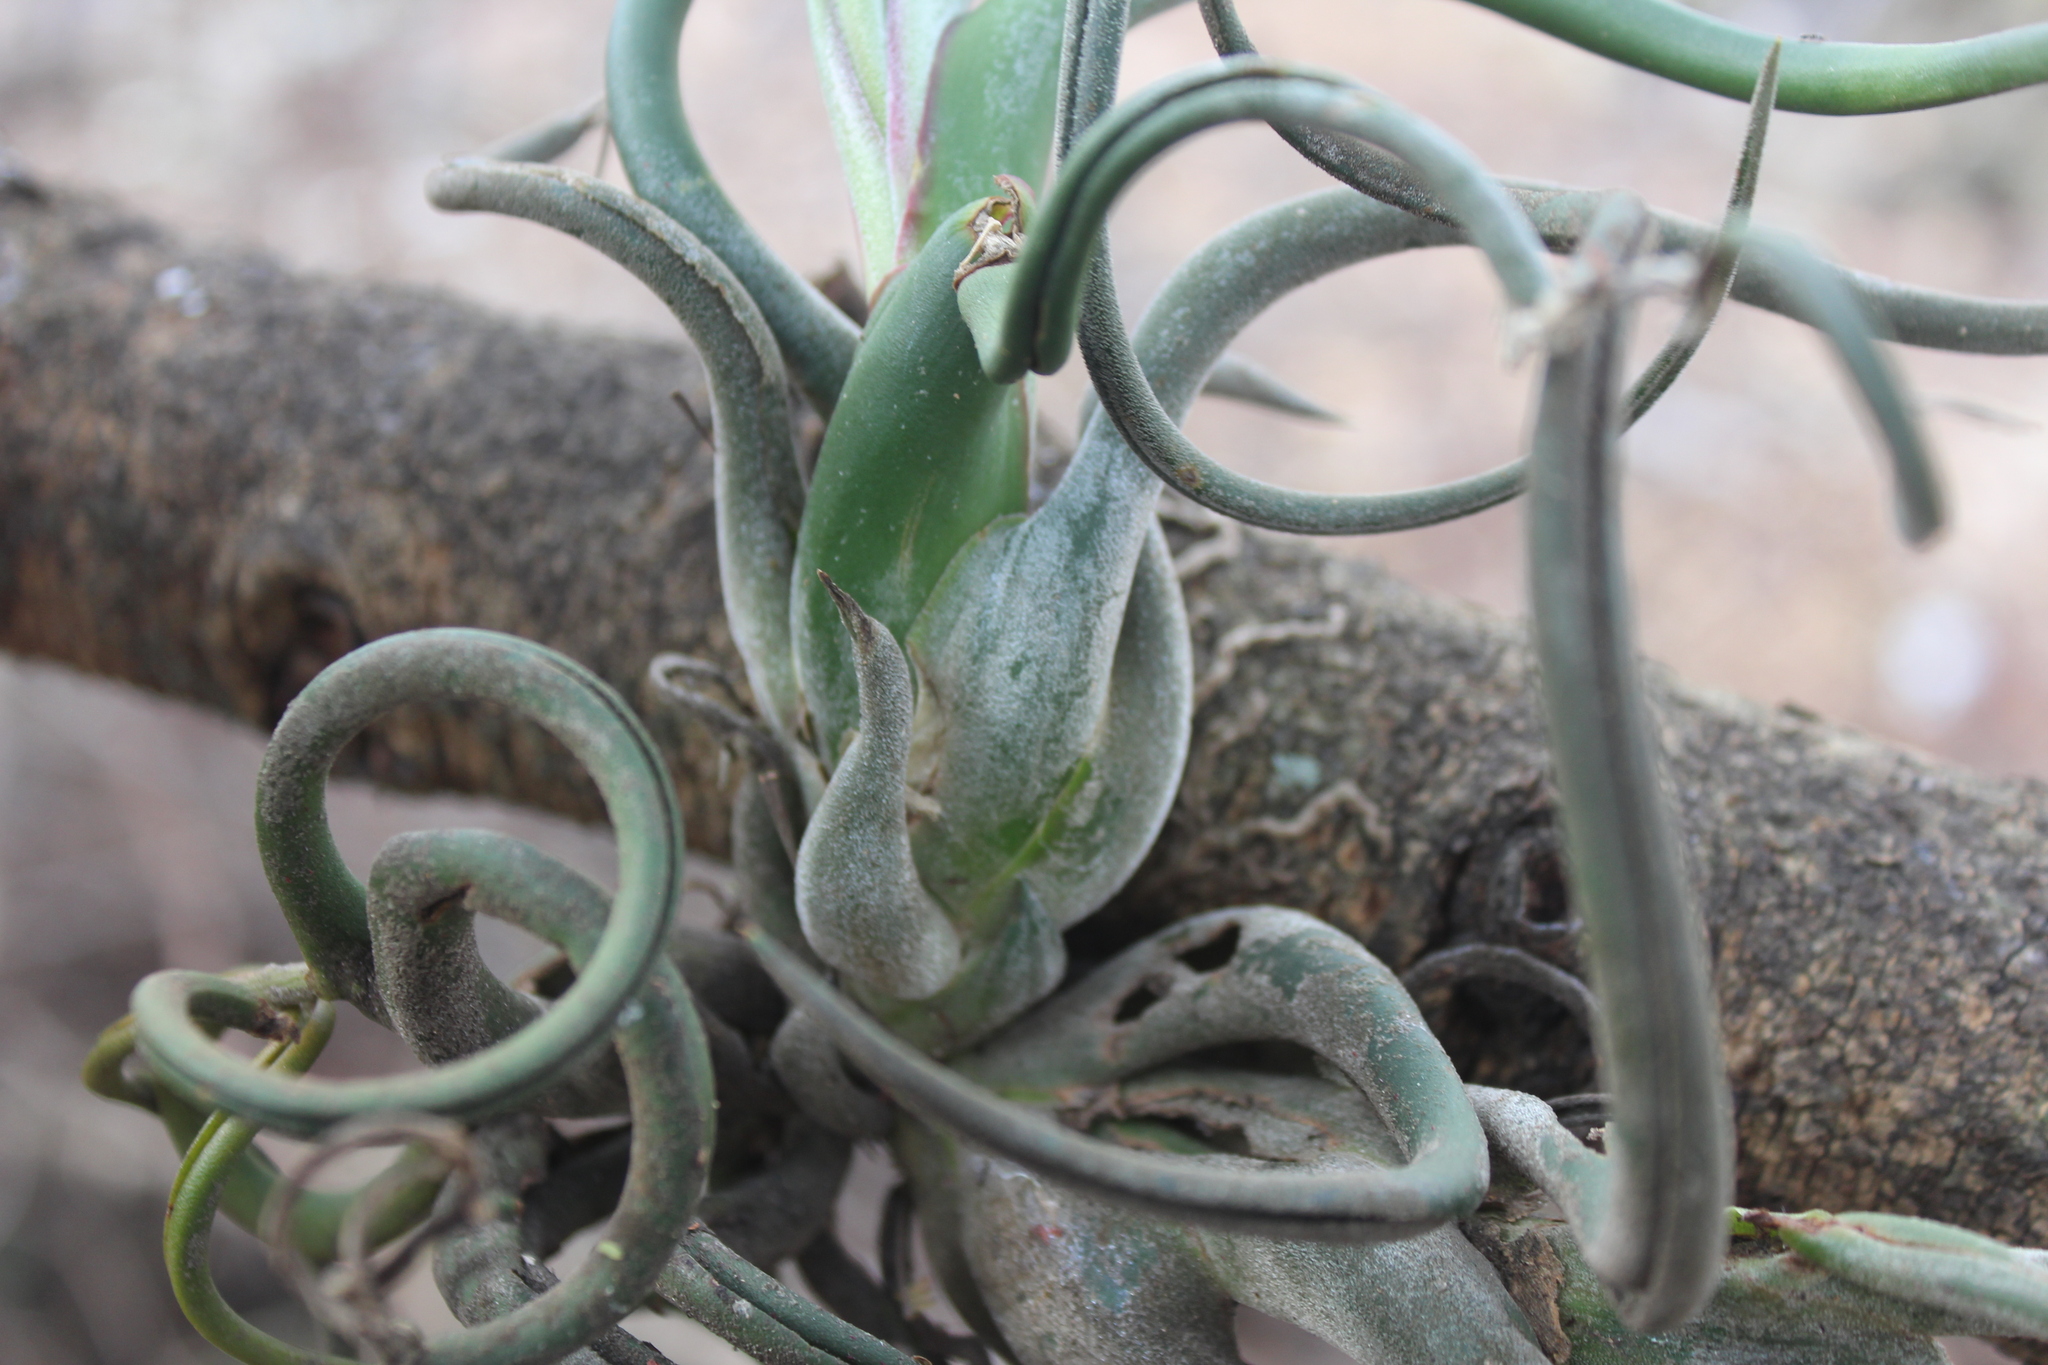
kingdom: Plantae
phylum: Tracheophyta
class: Liliopsida
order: Poales
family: Bromeliaceae
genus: Tillandsia
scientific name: Tillandsia caput-medusae
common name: Octopus plant
